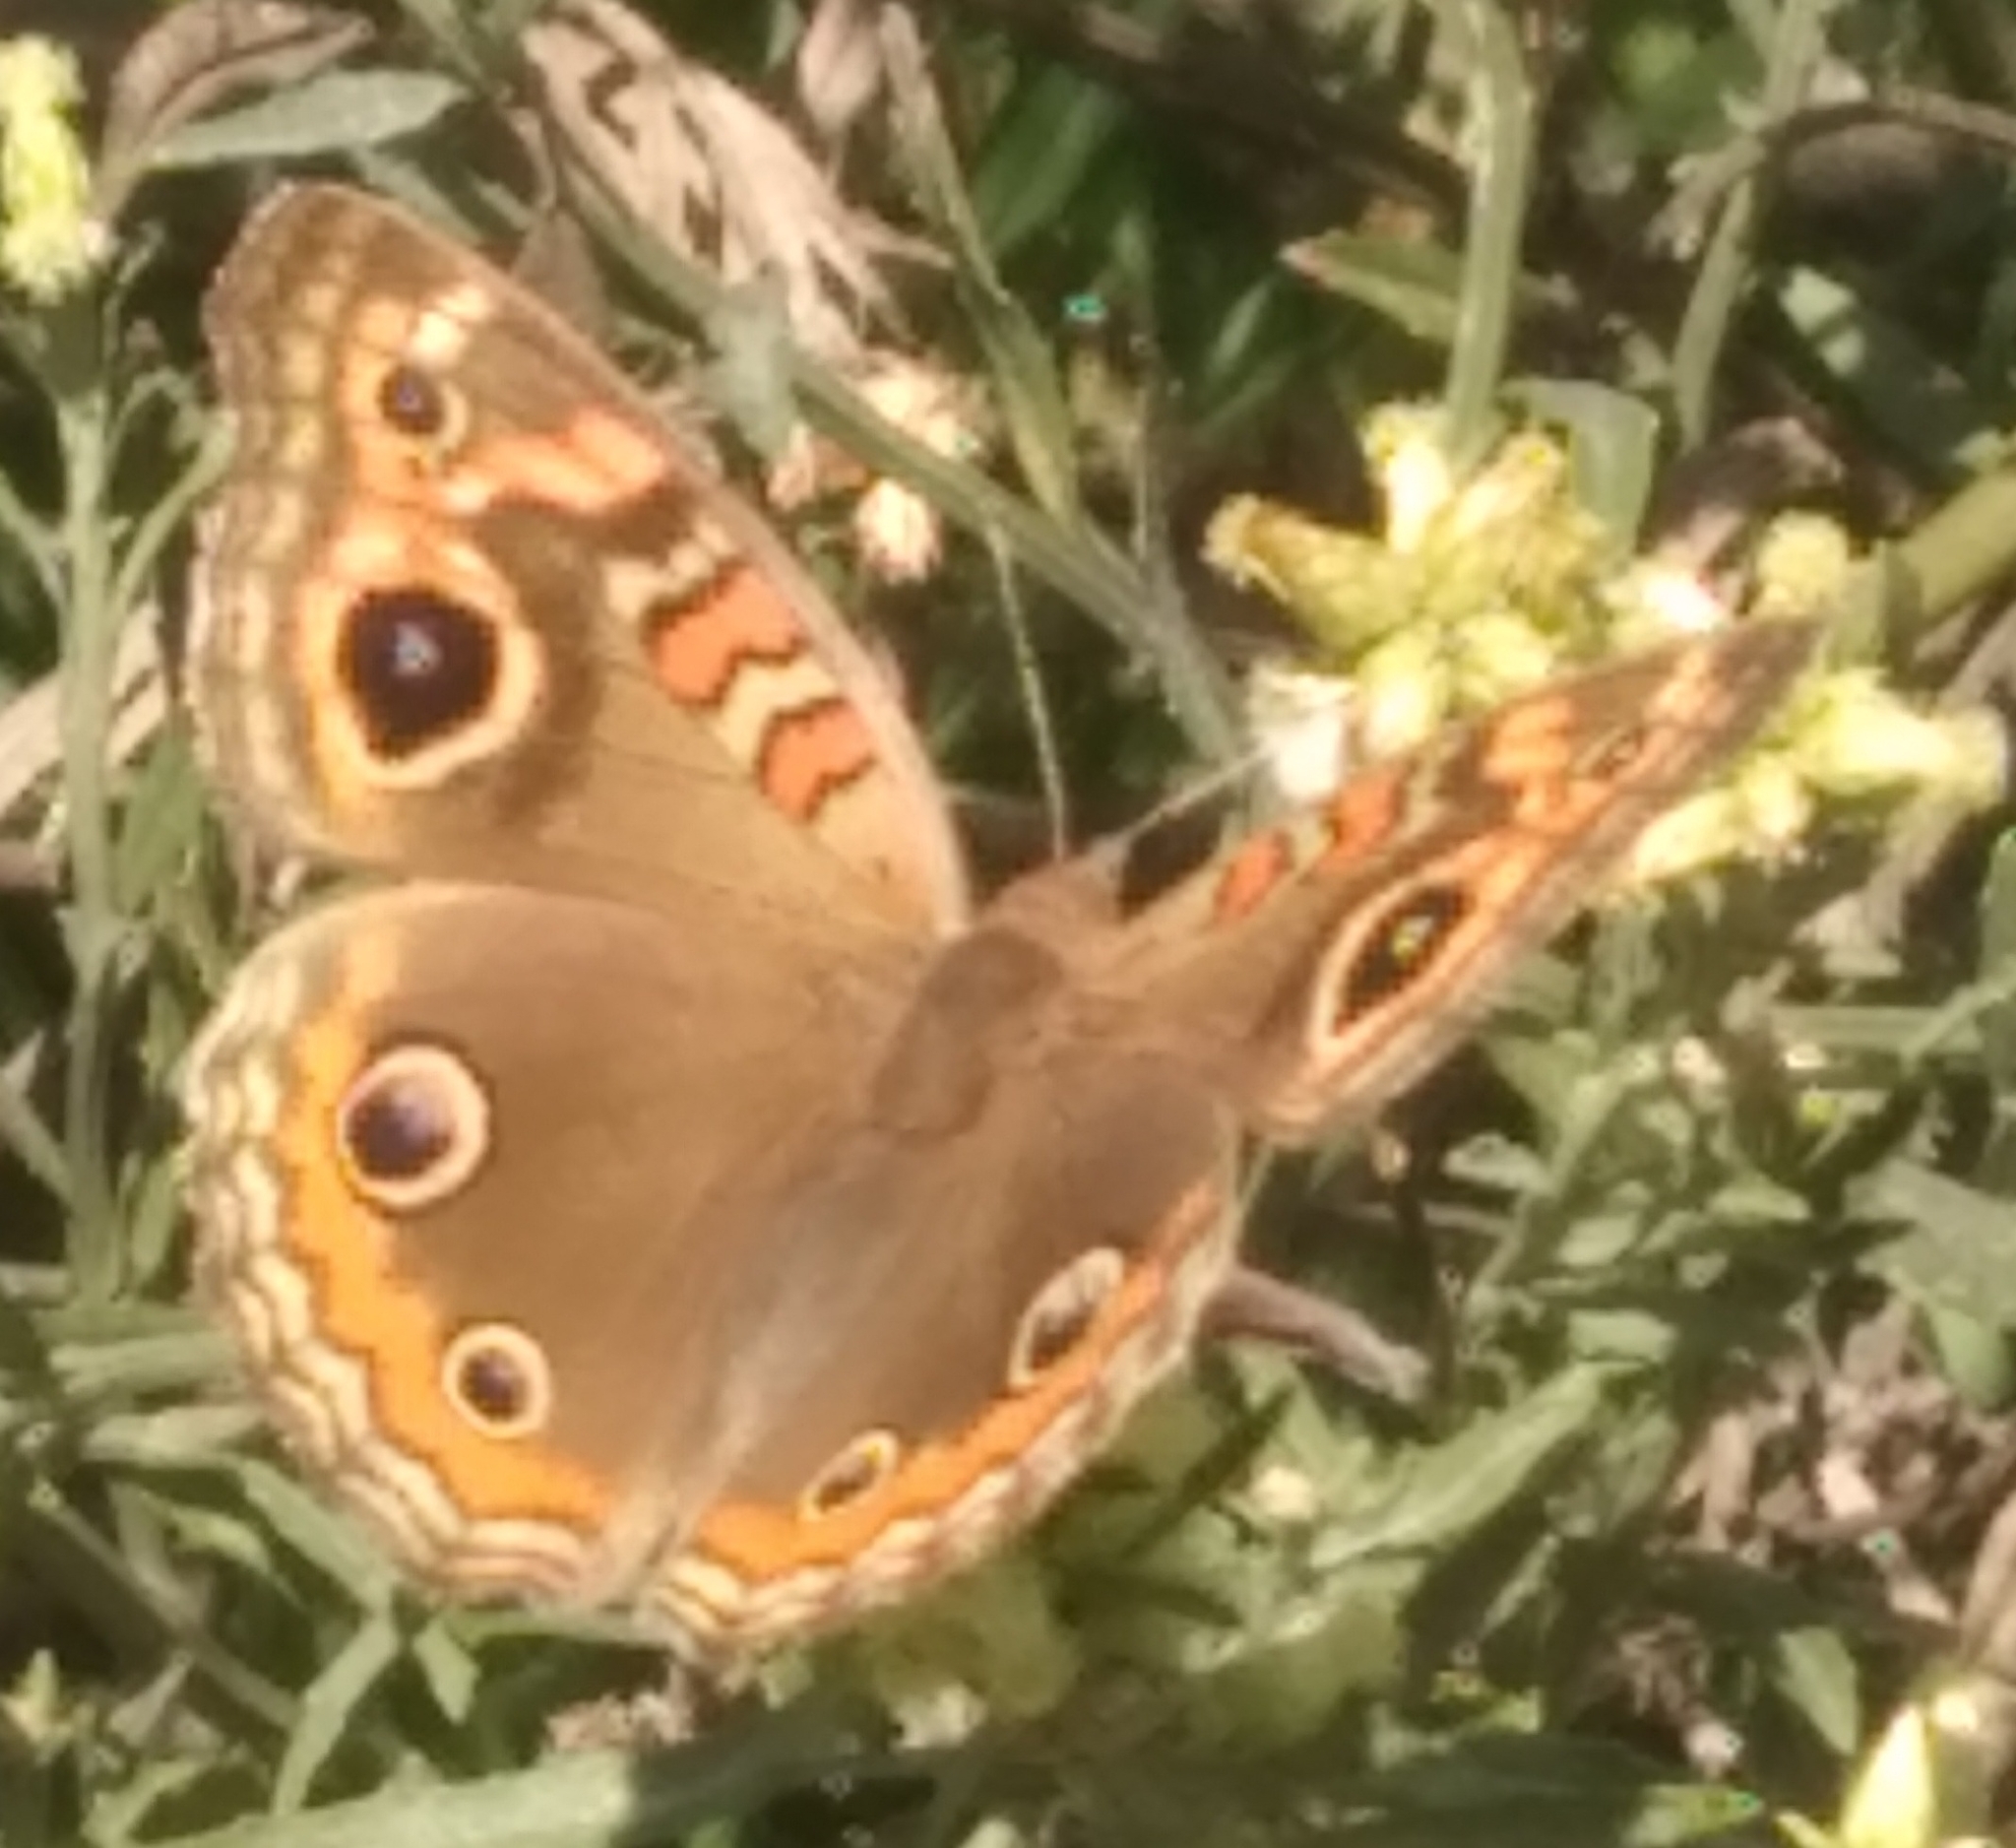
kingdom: Animalia
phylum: Arthropoda
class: Insecta
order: Lepidoptera
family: Nymphalidae
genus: Junonia
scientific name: Junonia lavinia
